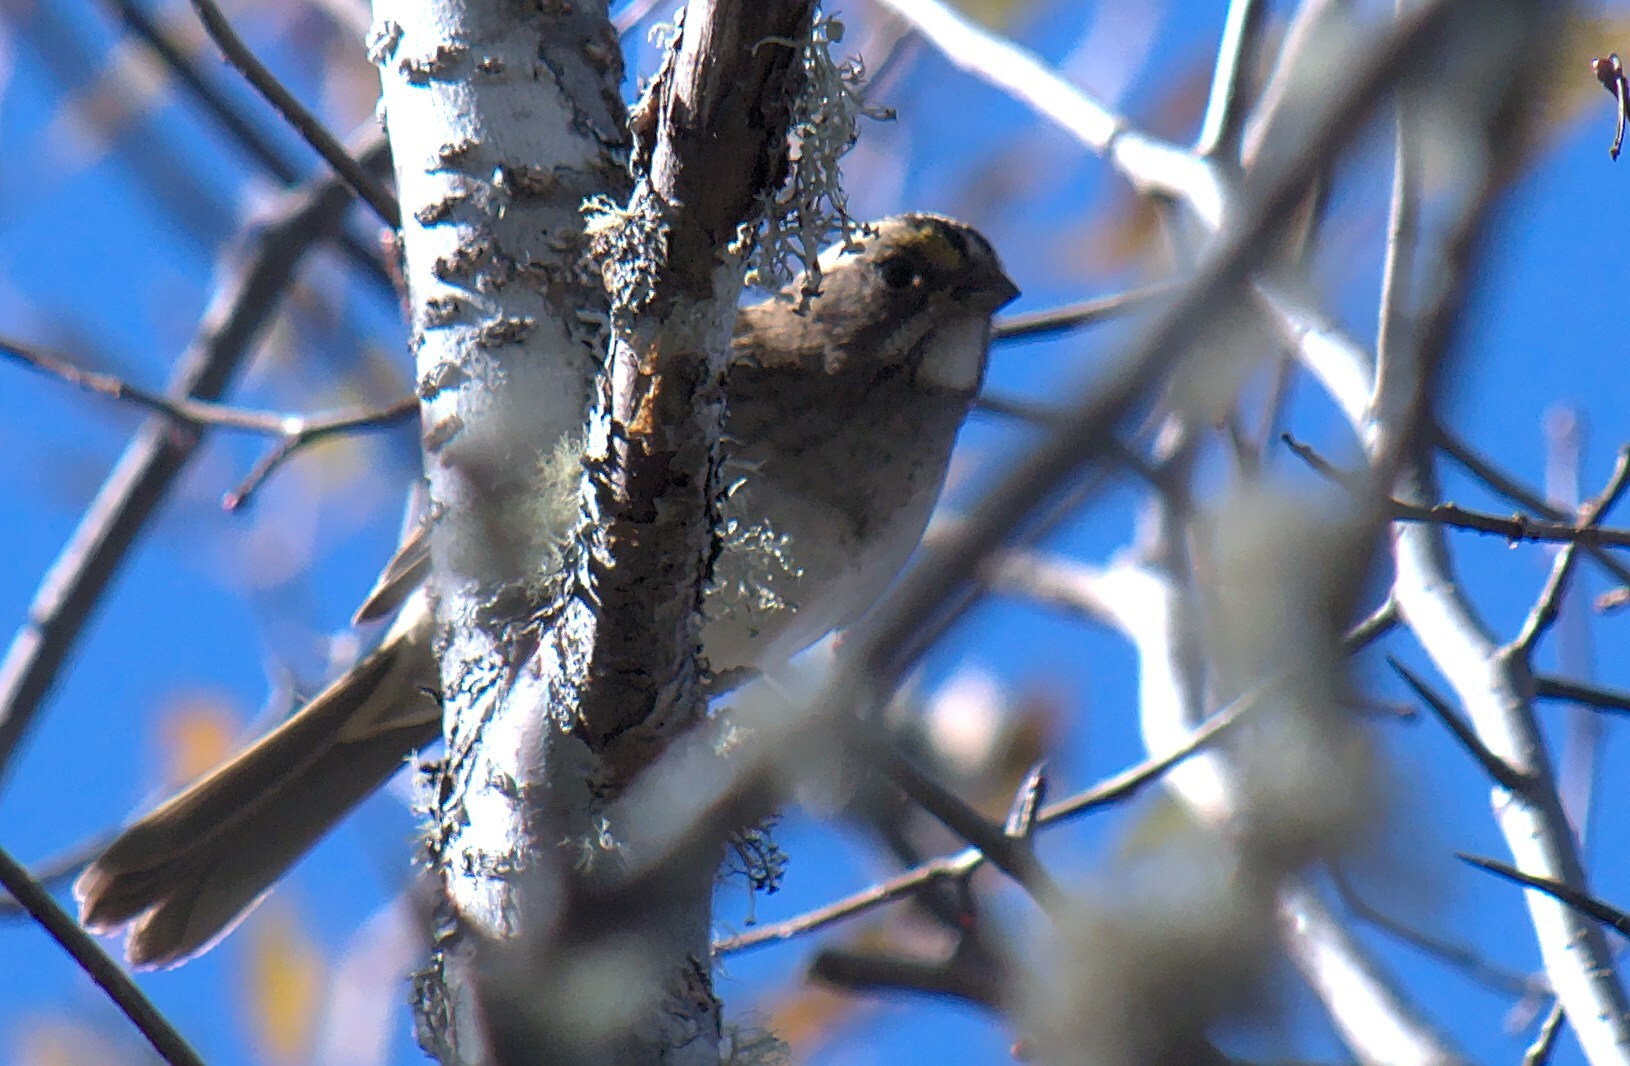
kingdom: Animalia
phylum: Chordata
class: Aves
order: Passeriformes
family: Passerellidae
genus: Zonotrichia
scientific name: Zonotrichia albicollis
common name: White-throated sparrow
